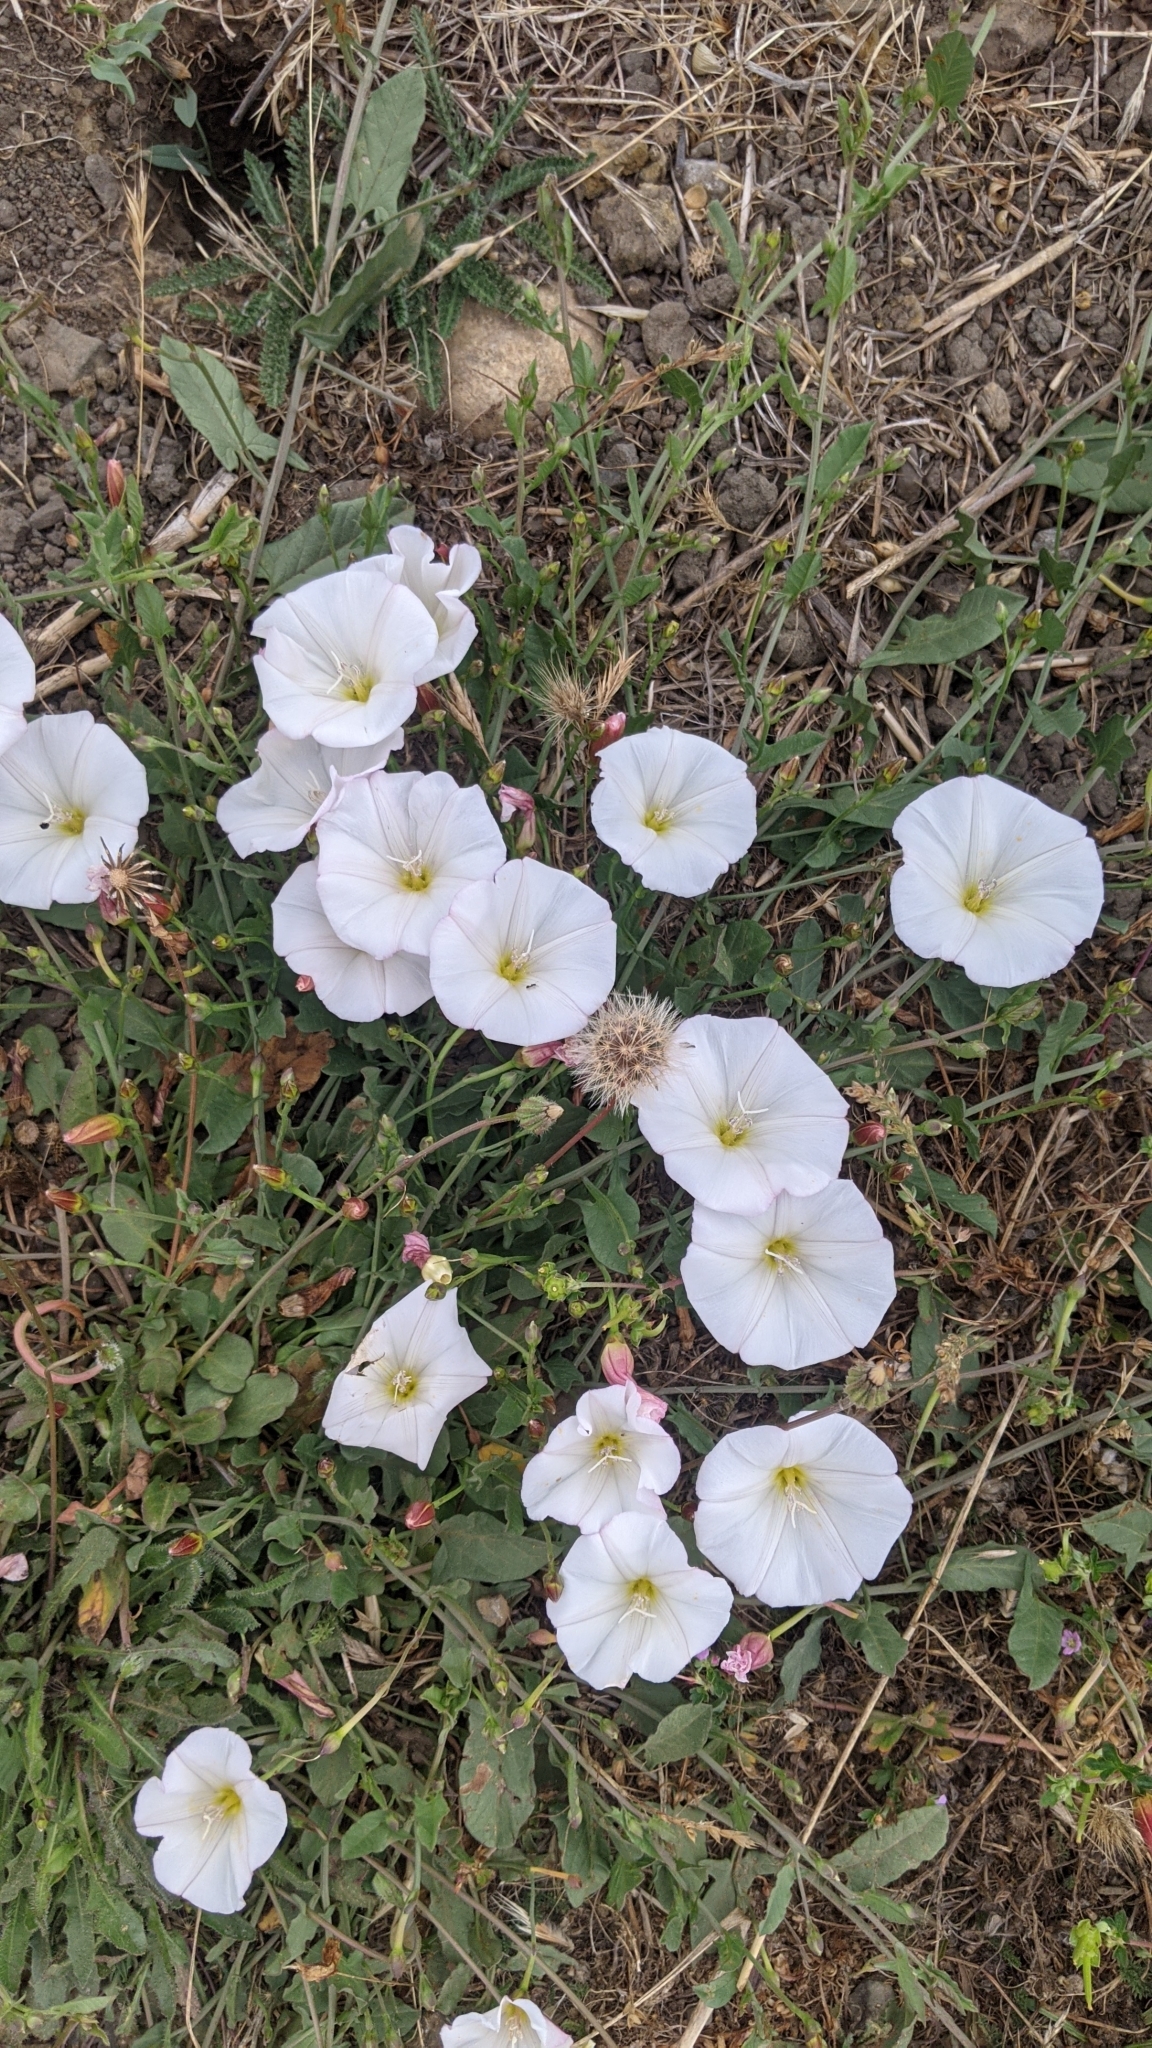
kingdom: Plantae
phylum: Tracheophyta
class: Magnoliopsida
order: Solanales
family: Convolvulaceae
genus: Convolvulus
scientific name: Convolvulus arvensis
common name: Field bindweed
